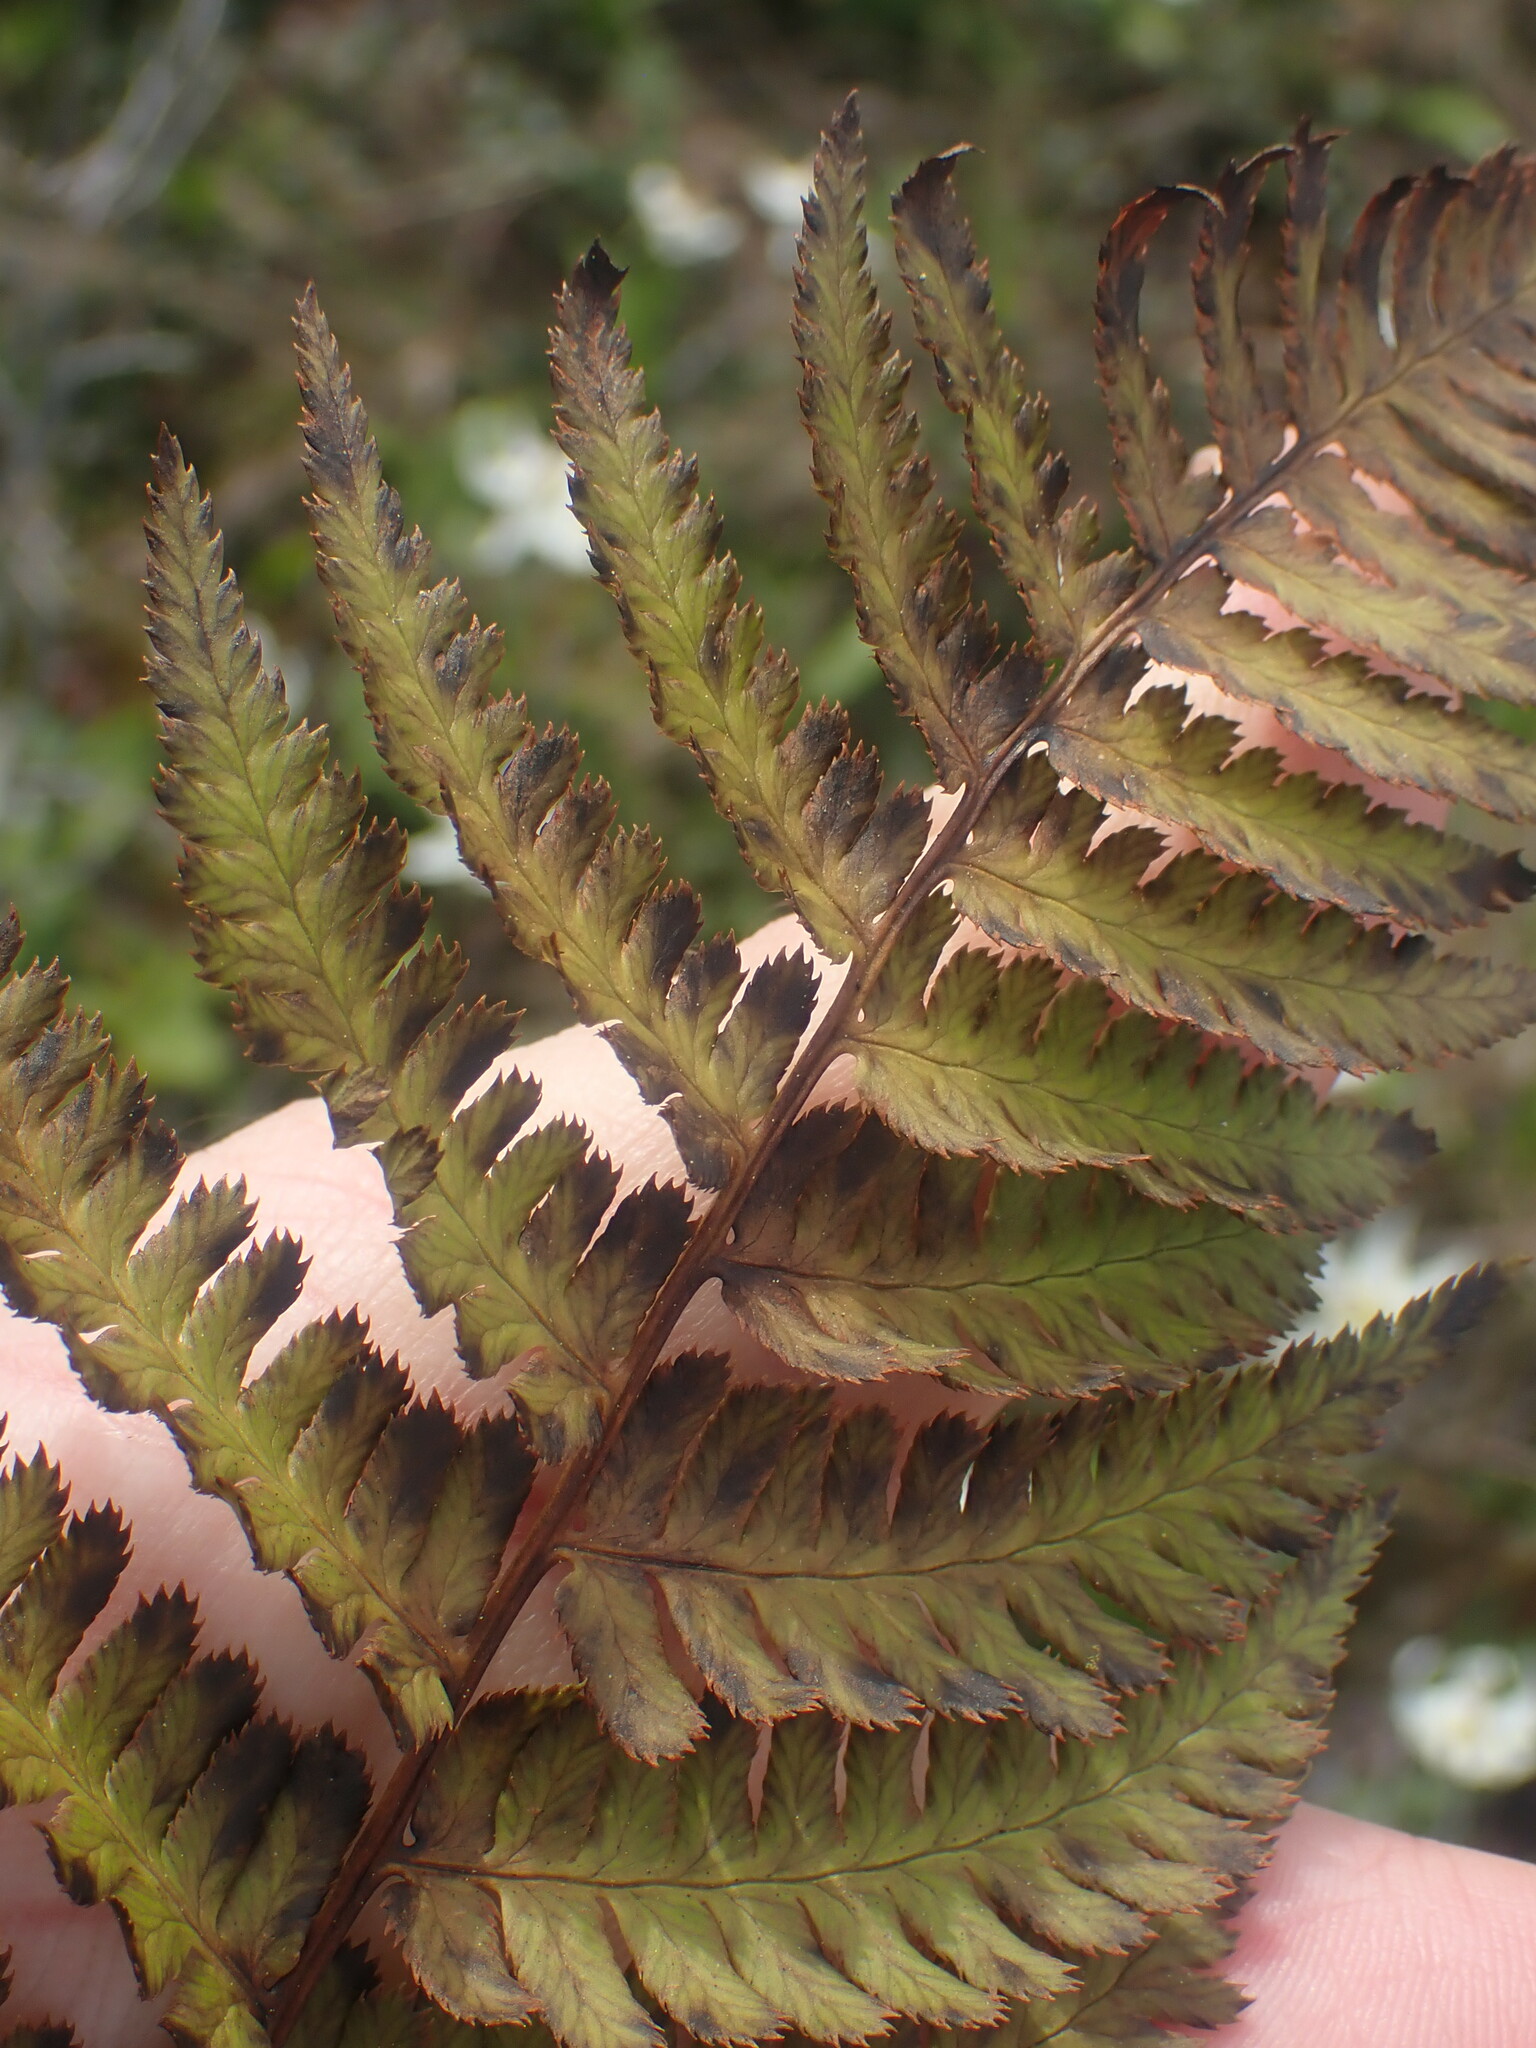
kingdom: Plantae
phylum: Tracheophyta
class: Polypodiopsida
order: Polypodiales
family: Dryopteridaceae
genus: Dryopteris
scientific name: Dryopteris arguta
